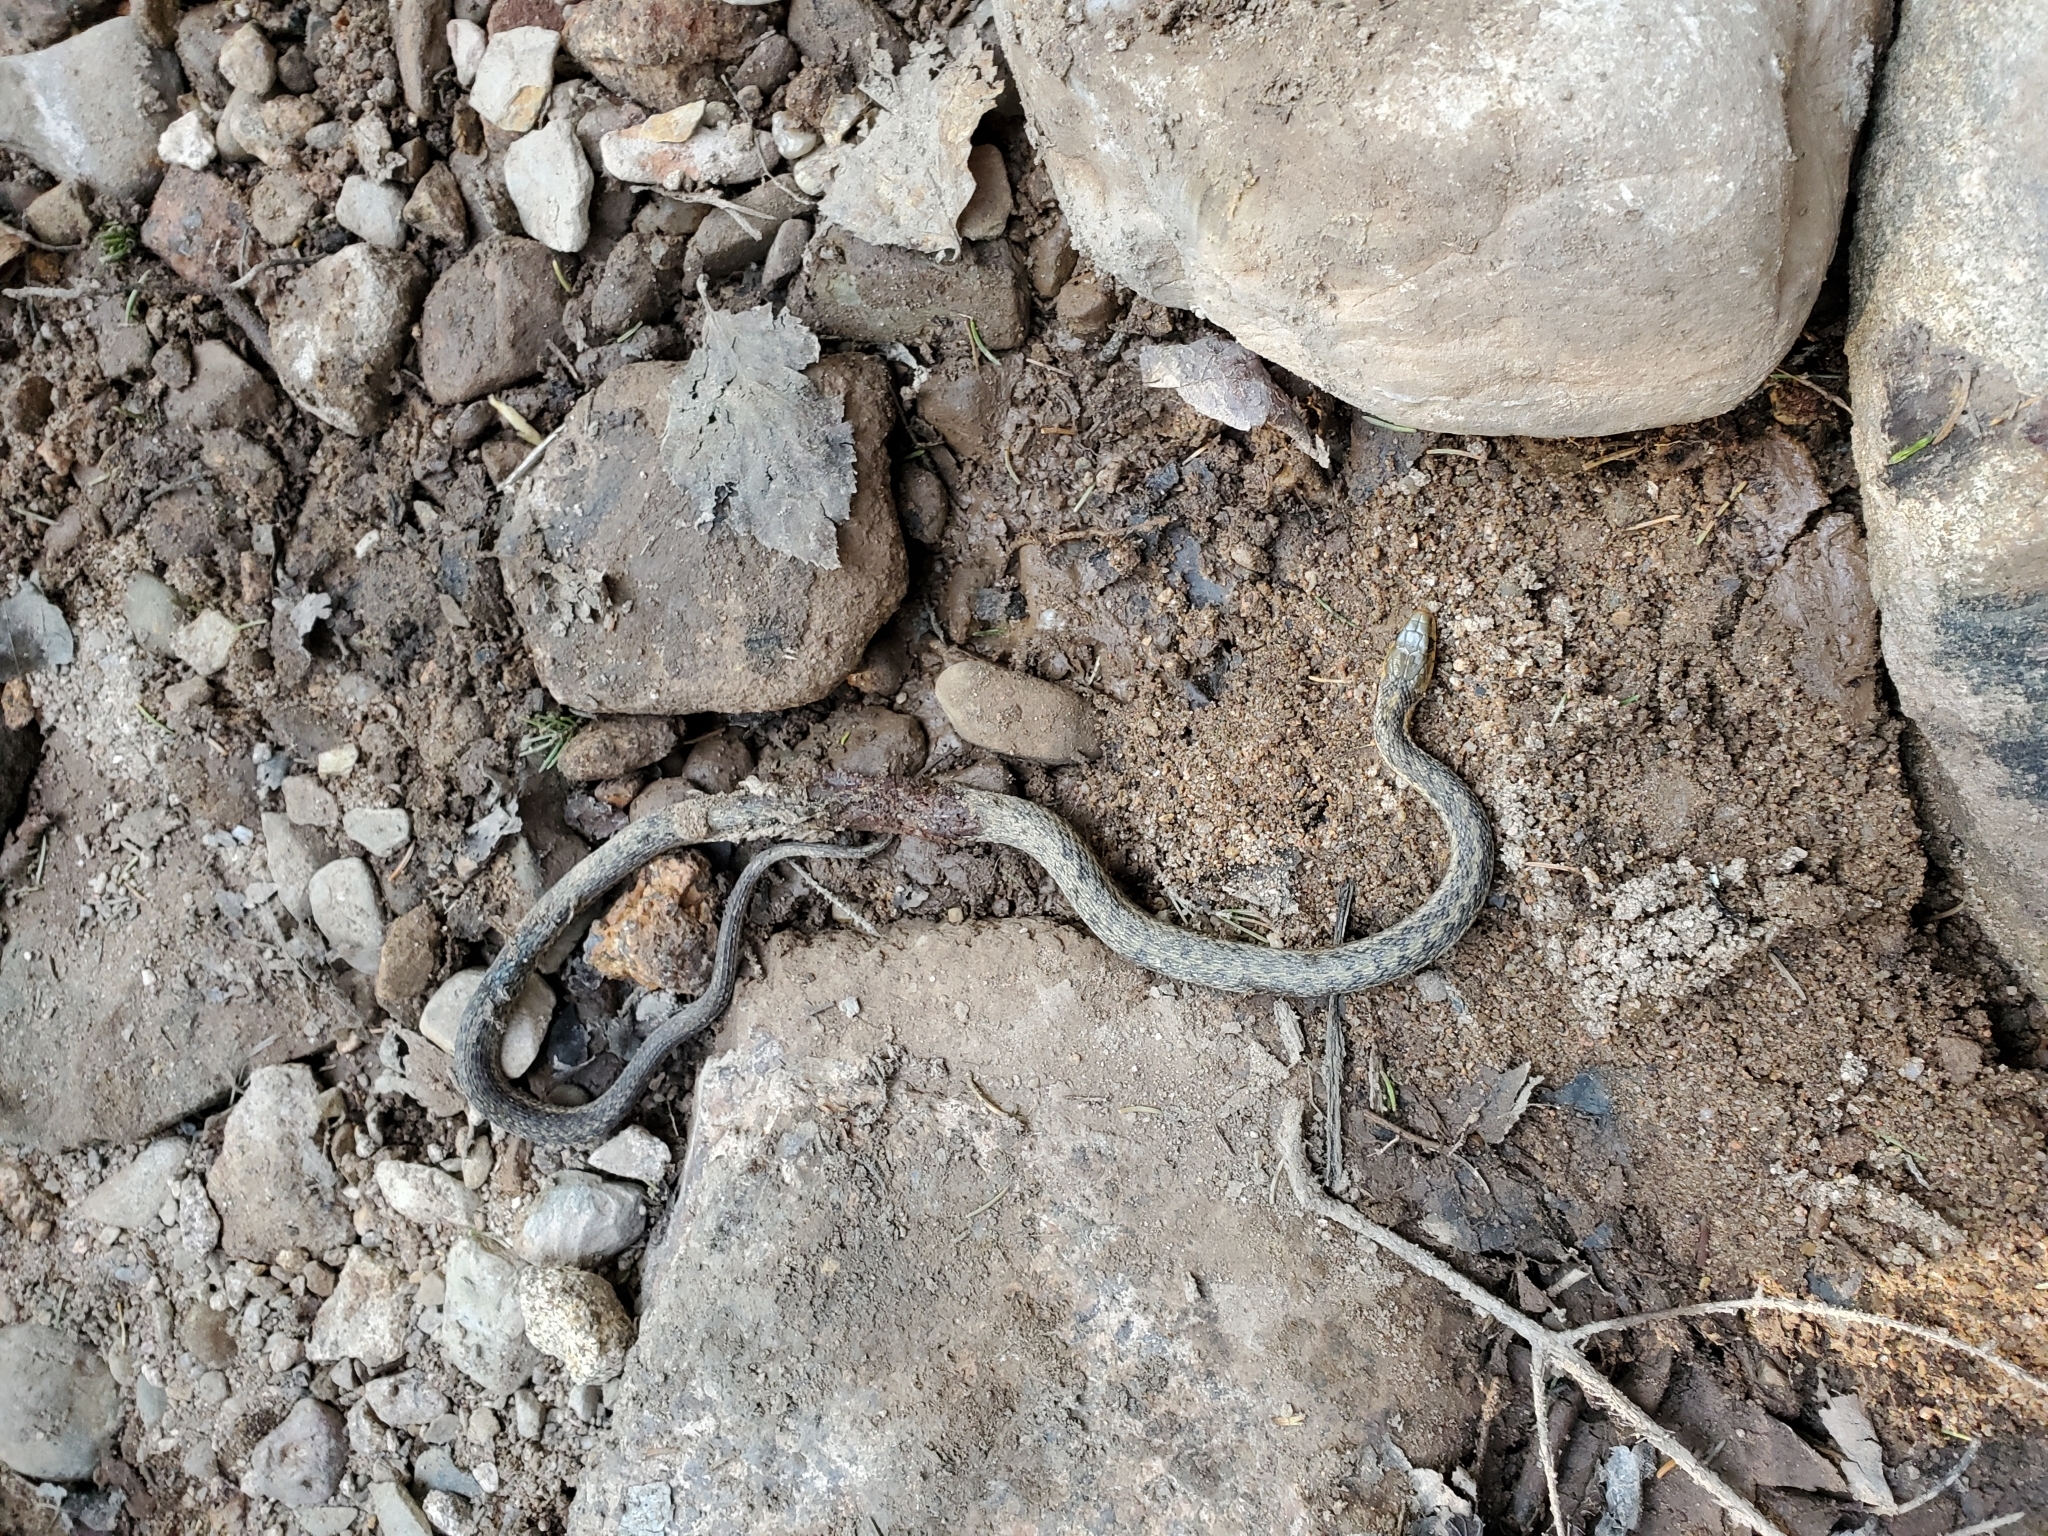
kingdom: Animalia
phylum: Chordata
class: Squamata
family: Colubridae
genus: Thamnophis
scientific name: Thamnophis sirtalis
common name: Common garter snake
